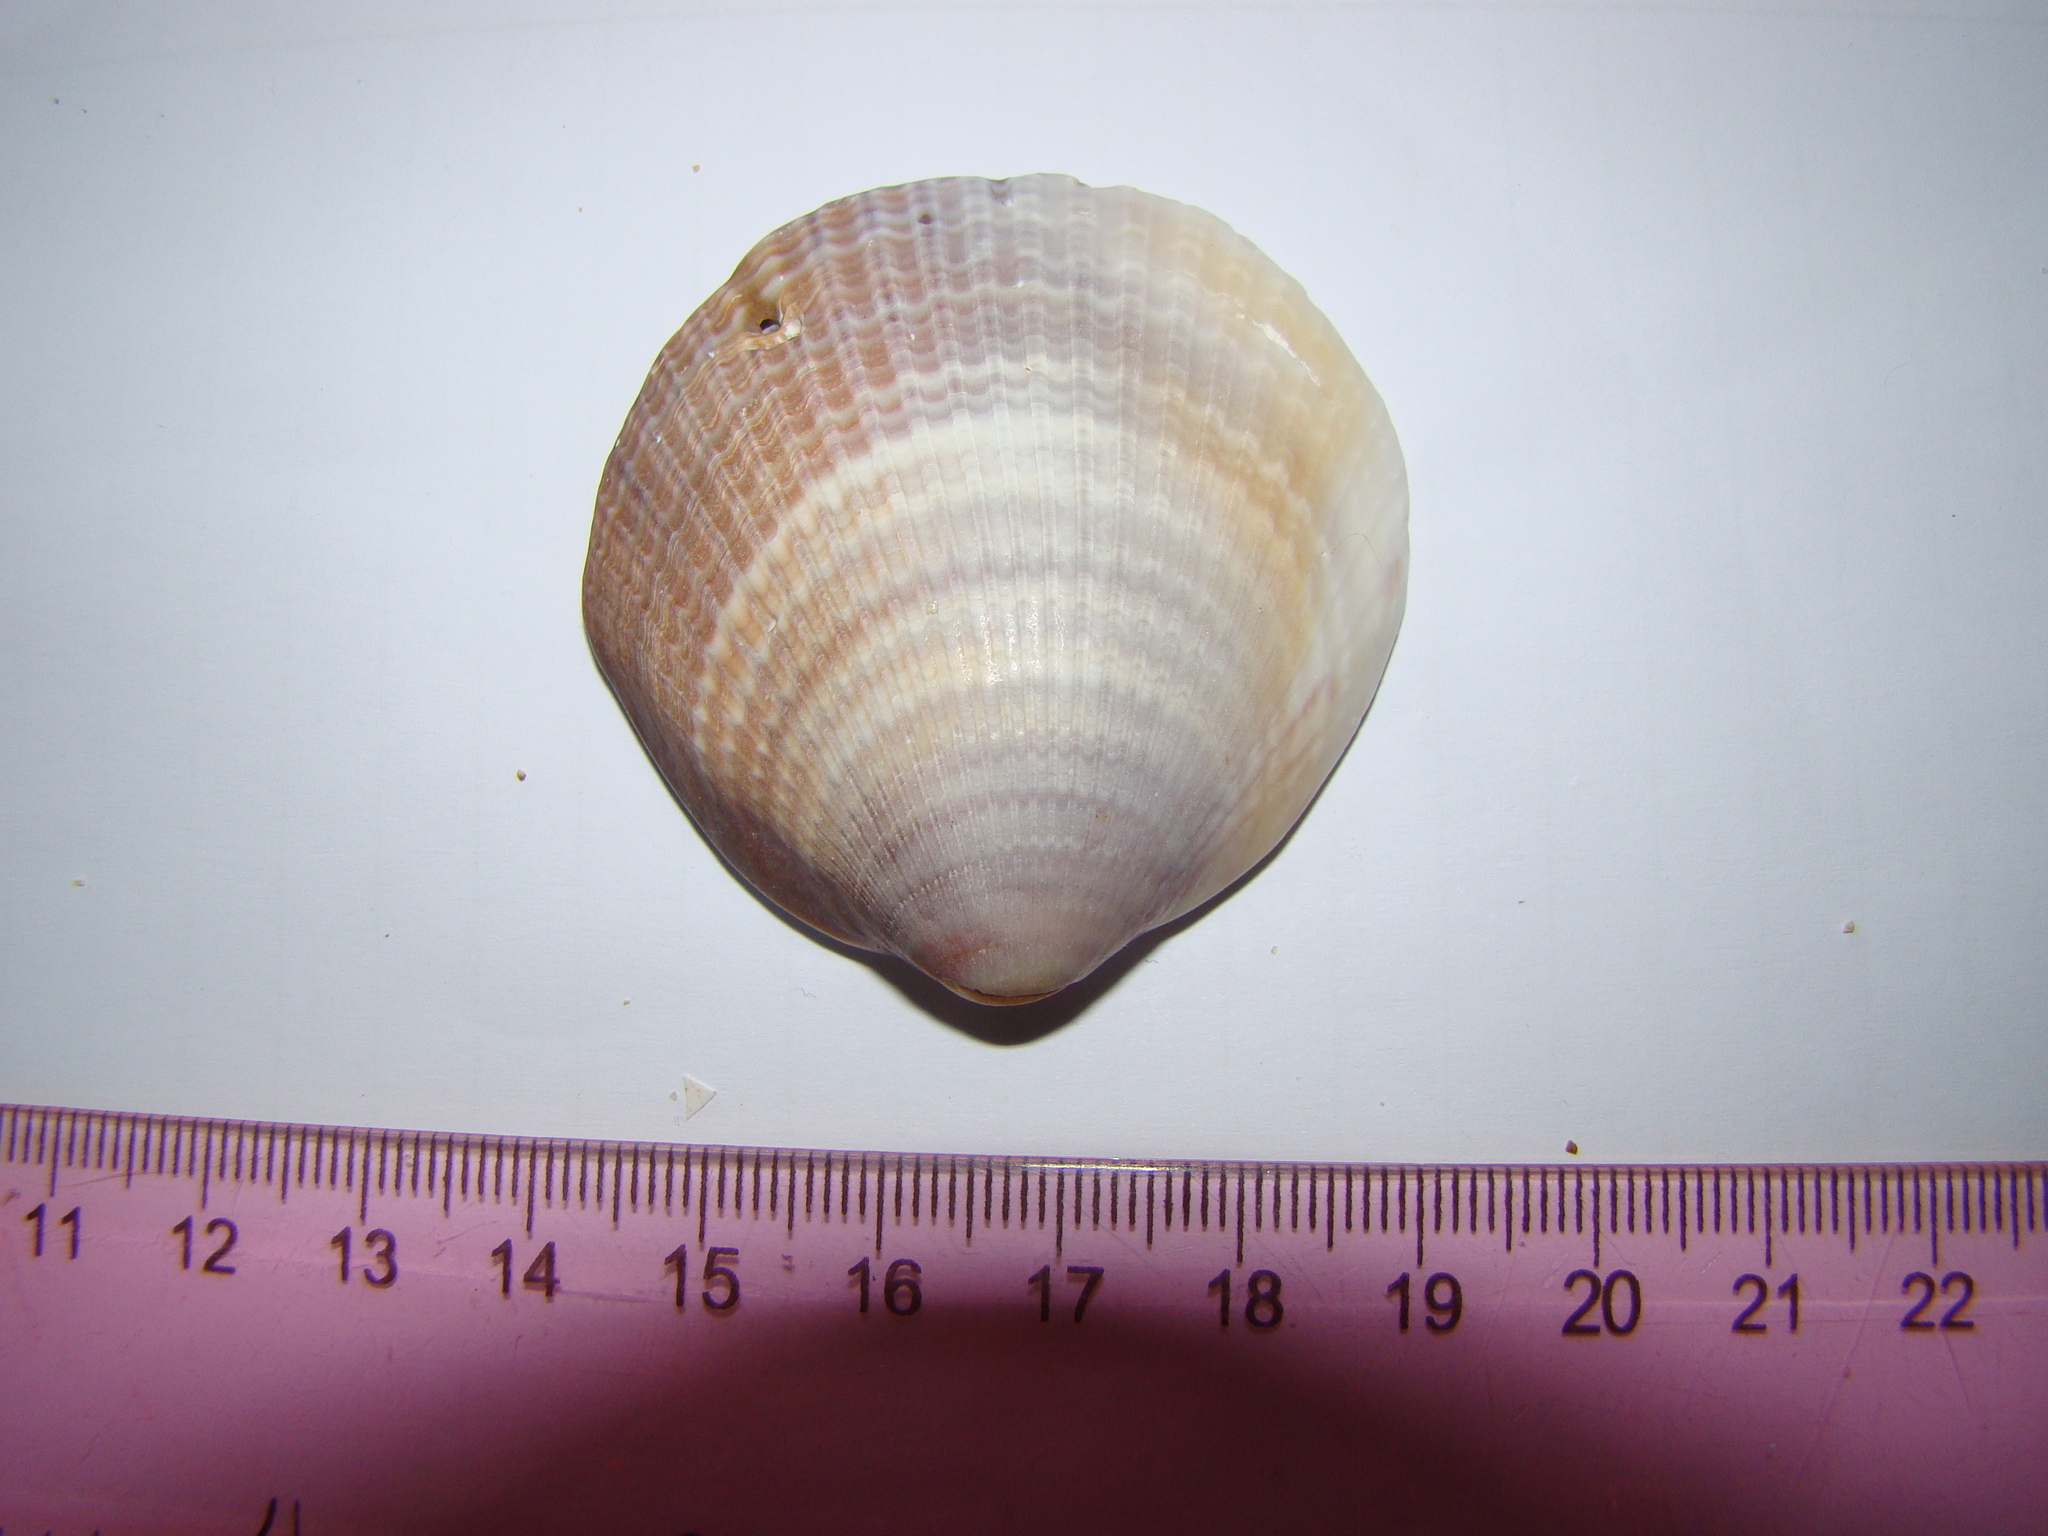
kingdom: Animalia
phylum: Mollusca
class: Bivalvia
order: Arcida
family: Glycymerididae
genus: Tucetona
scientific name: Tucetona laticostata
